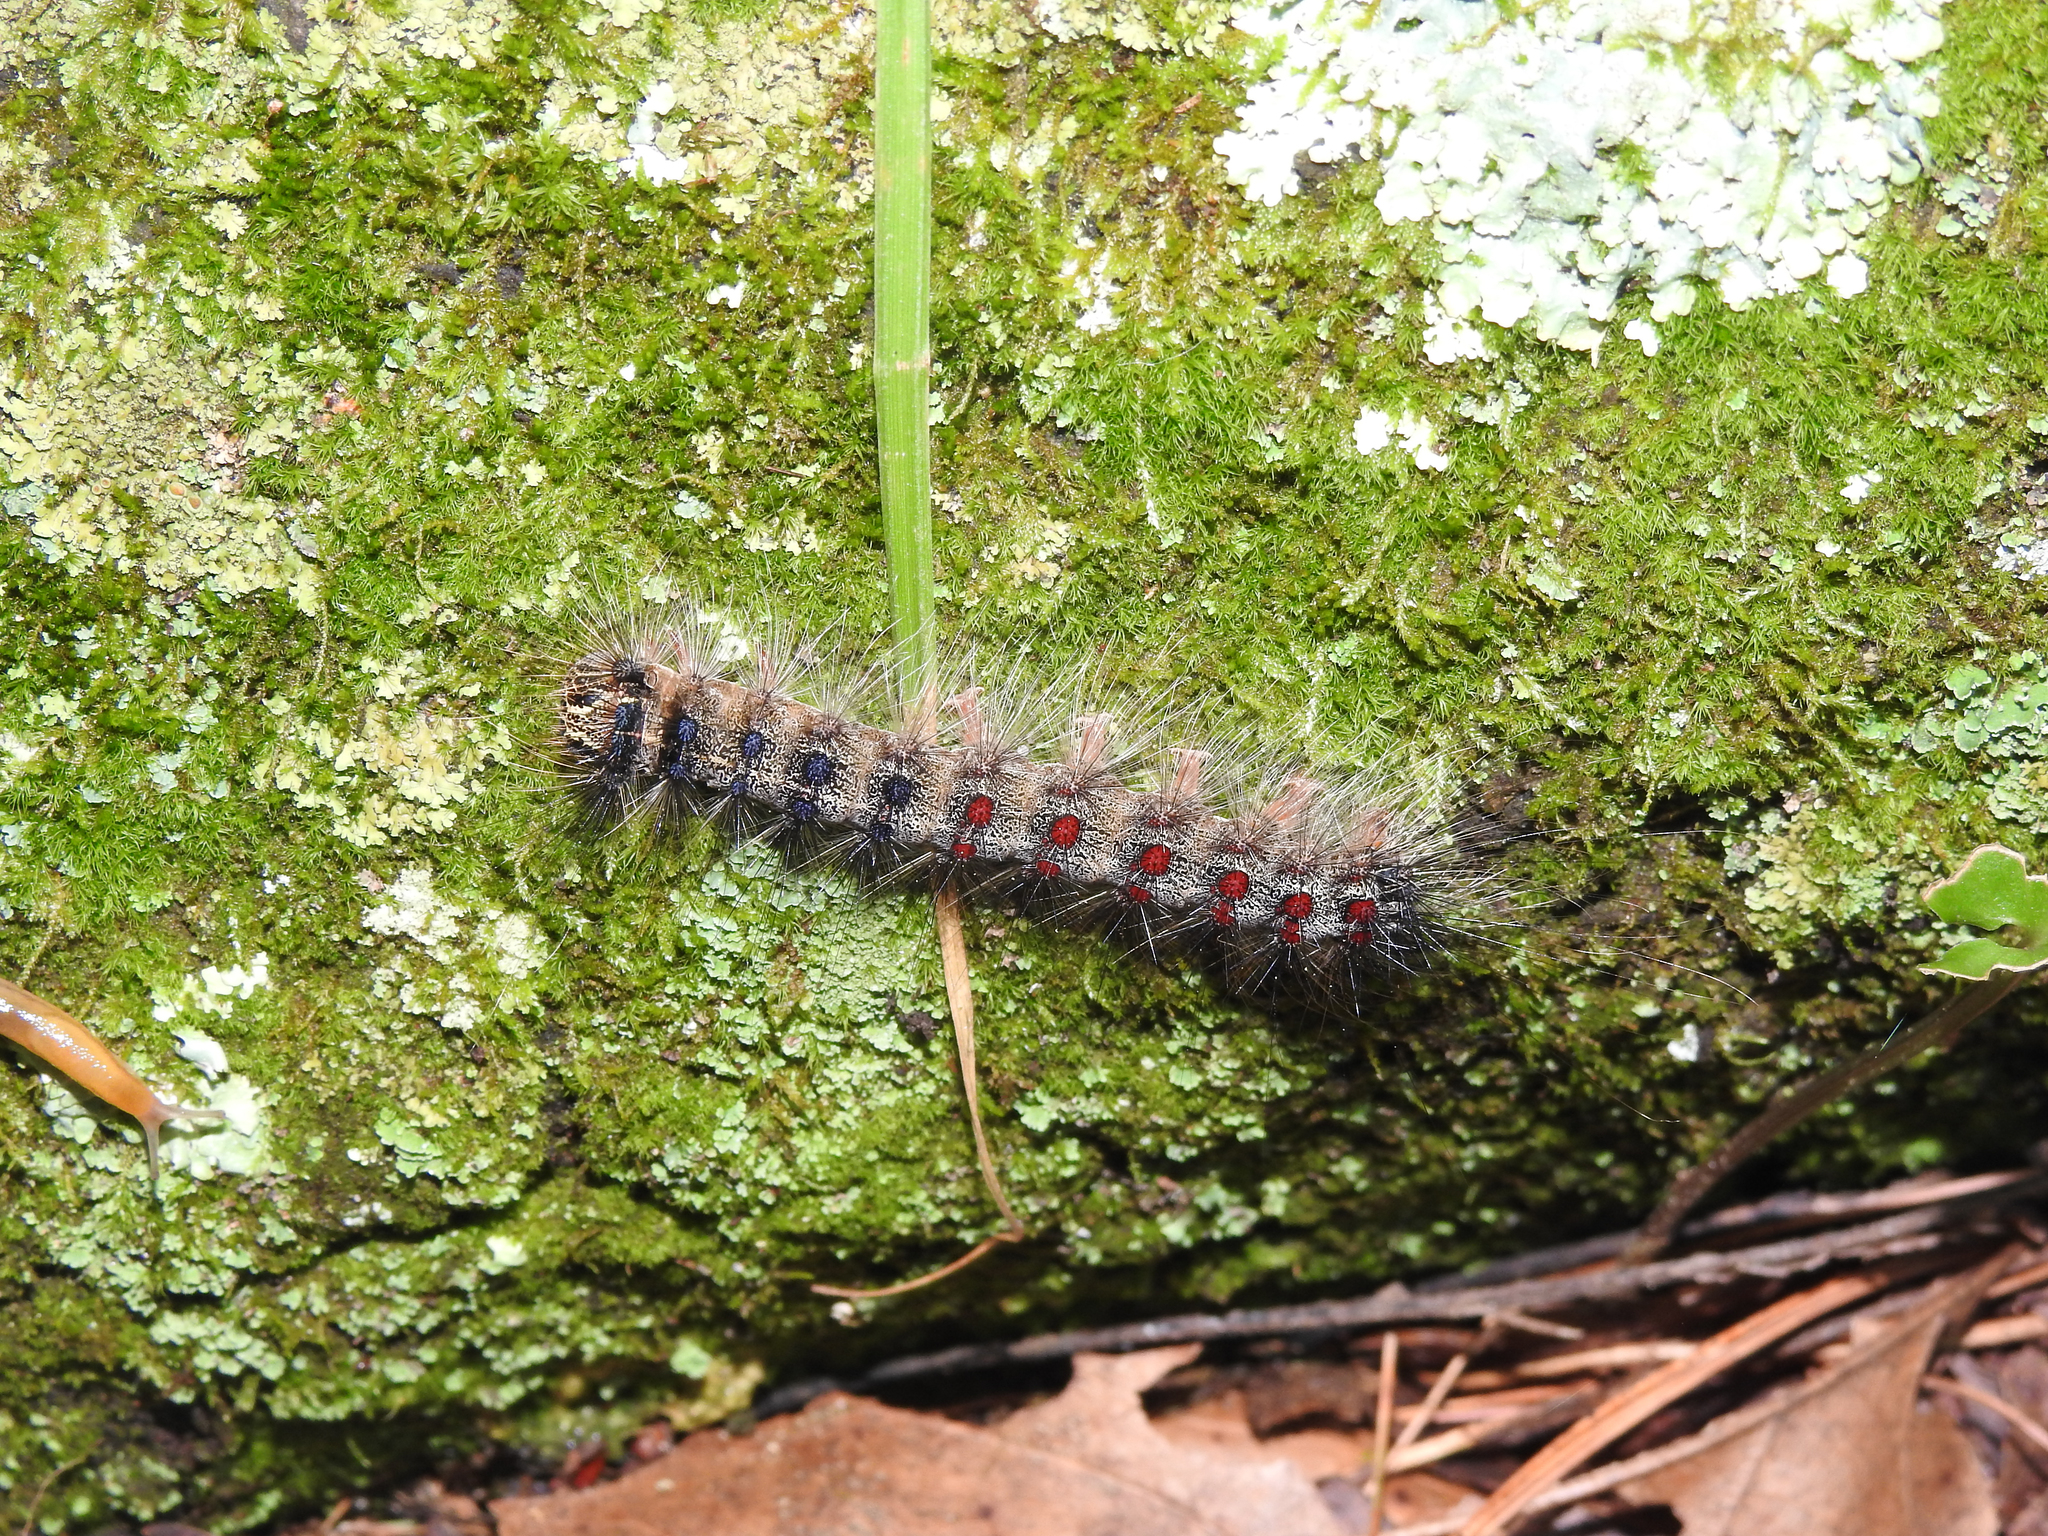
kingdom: Animalia
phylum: Arthropoda
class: Insecta
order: Lepidoptera
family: Erebidae
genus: Lymantria
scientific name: Lymantria dispar
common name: Gypsy moth
